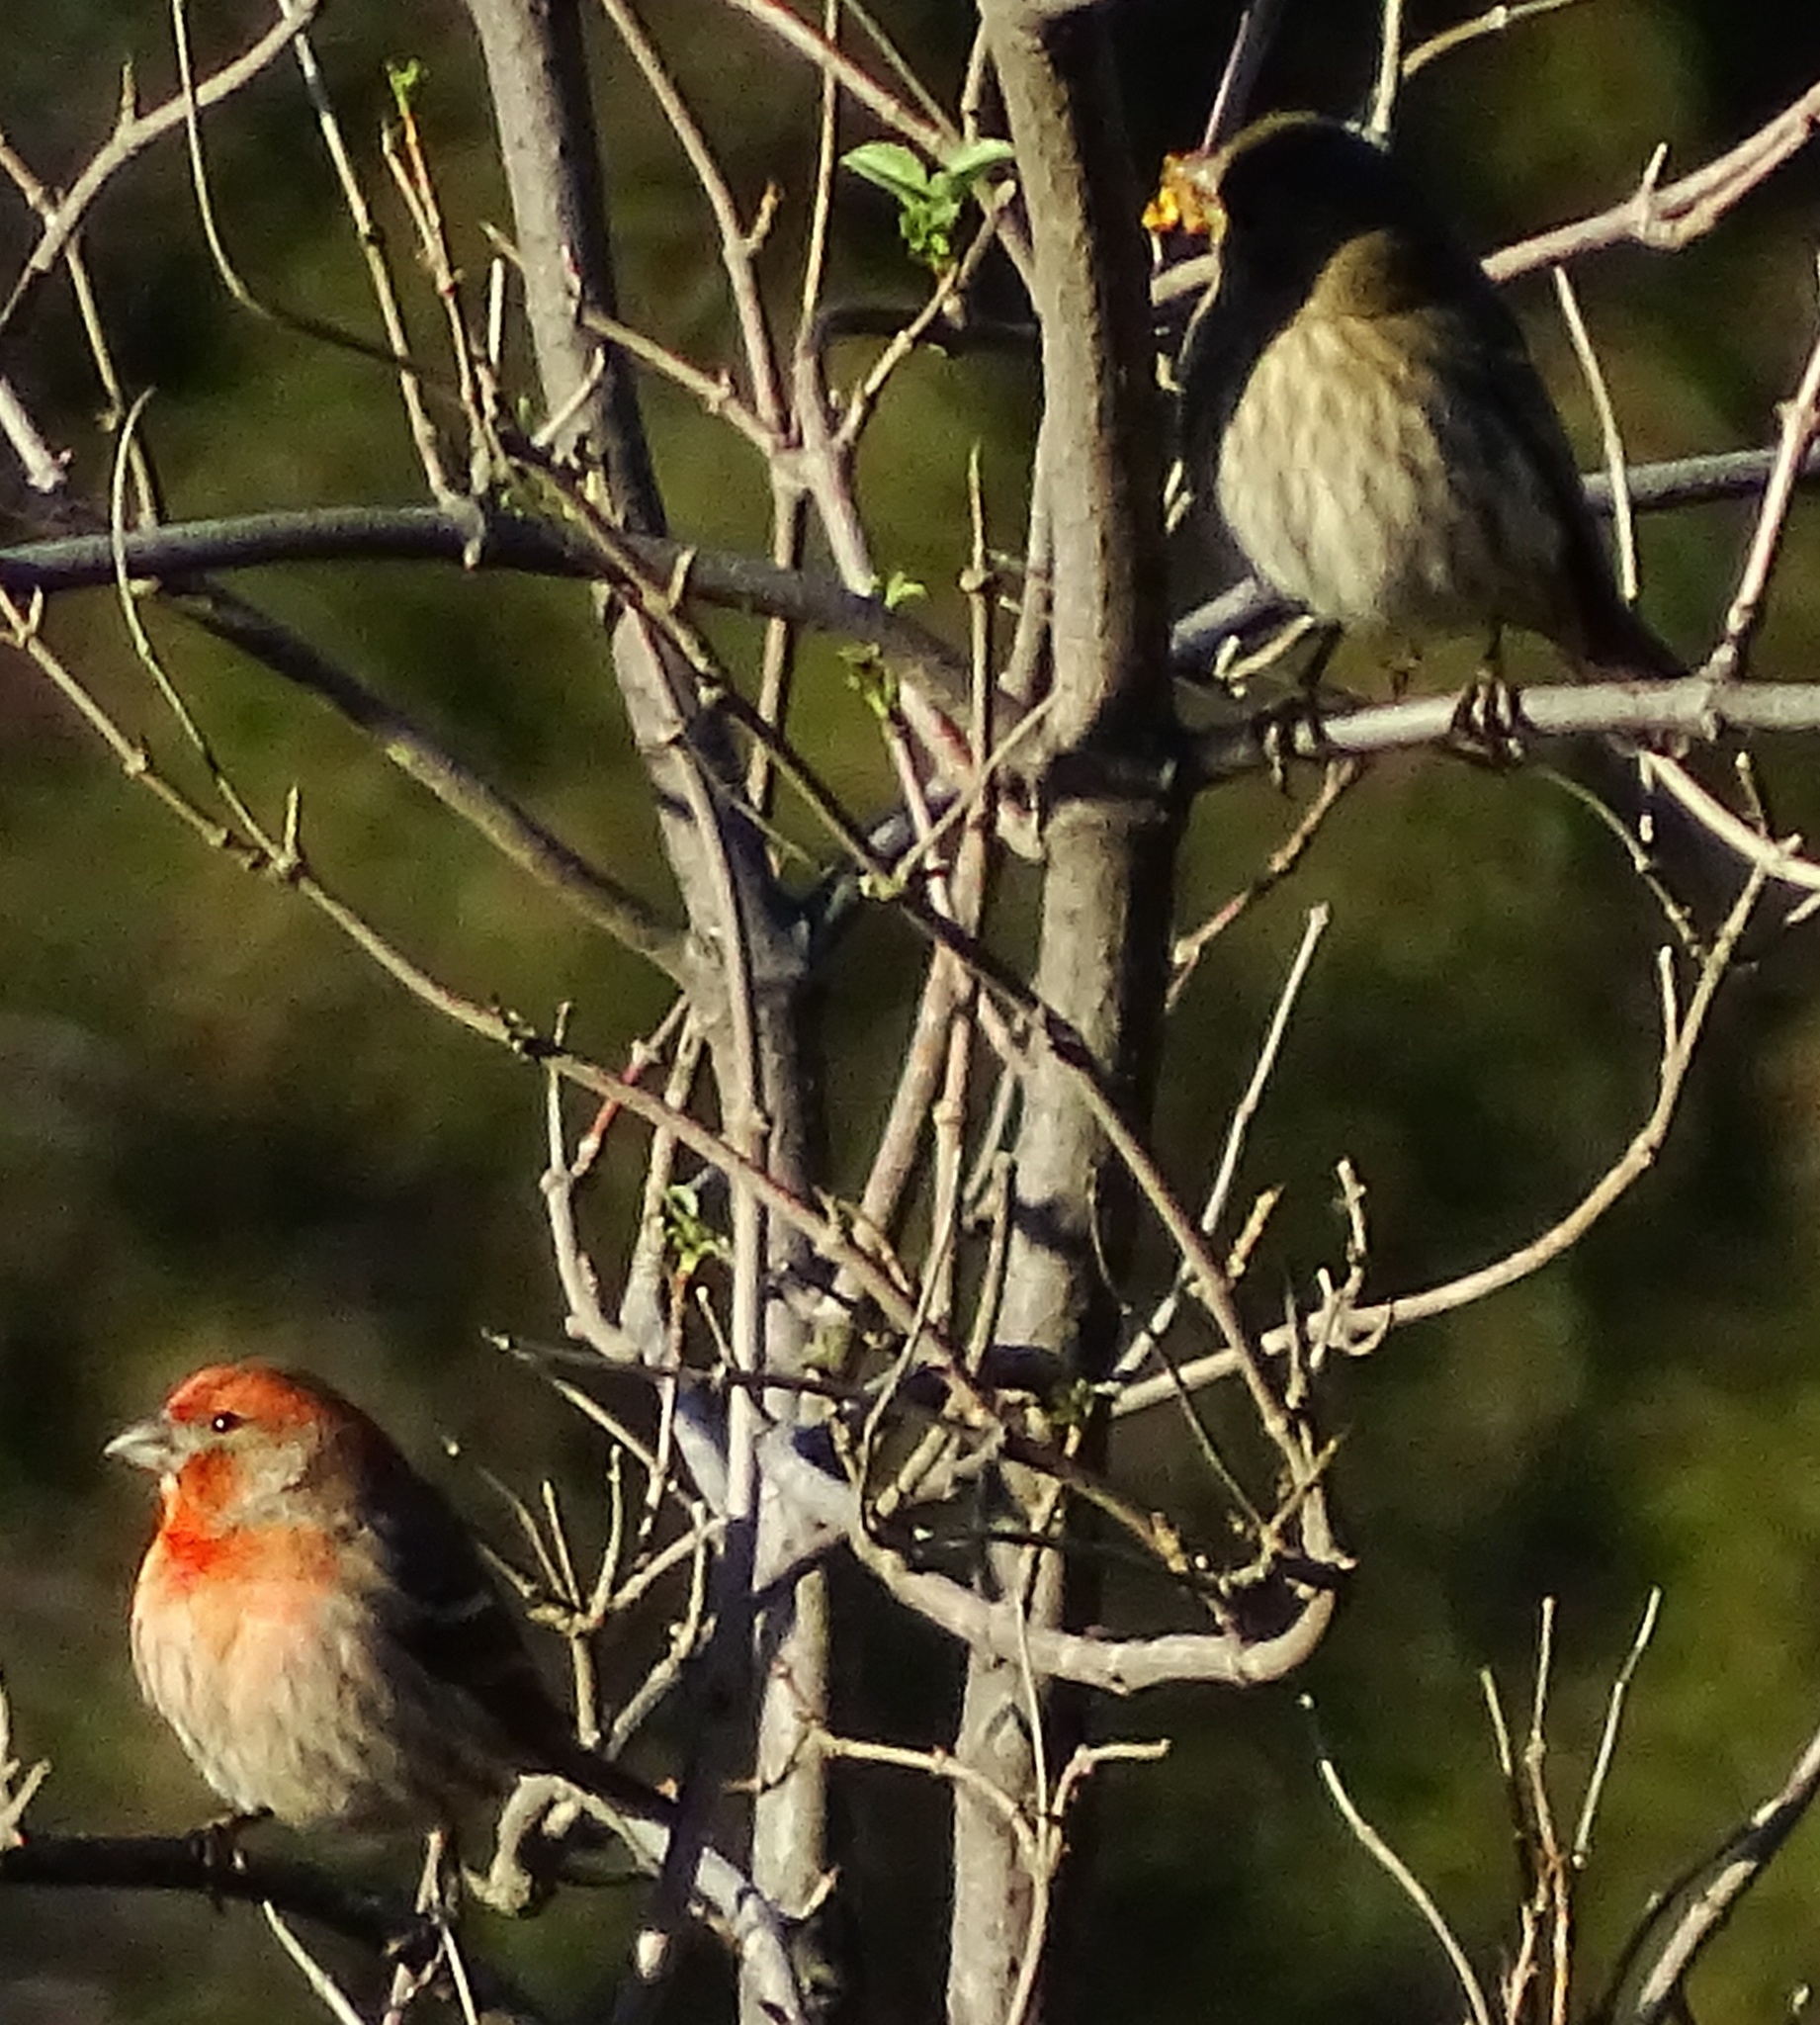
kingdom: Animalia
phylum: Chordata
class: Aves
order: Passeriformes
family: Fringillidae
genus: Haemorhous
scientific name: Haemorhous mexicanus
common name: House finch
